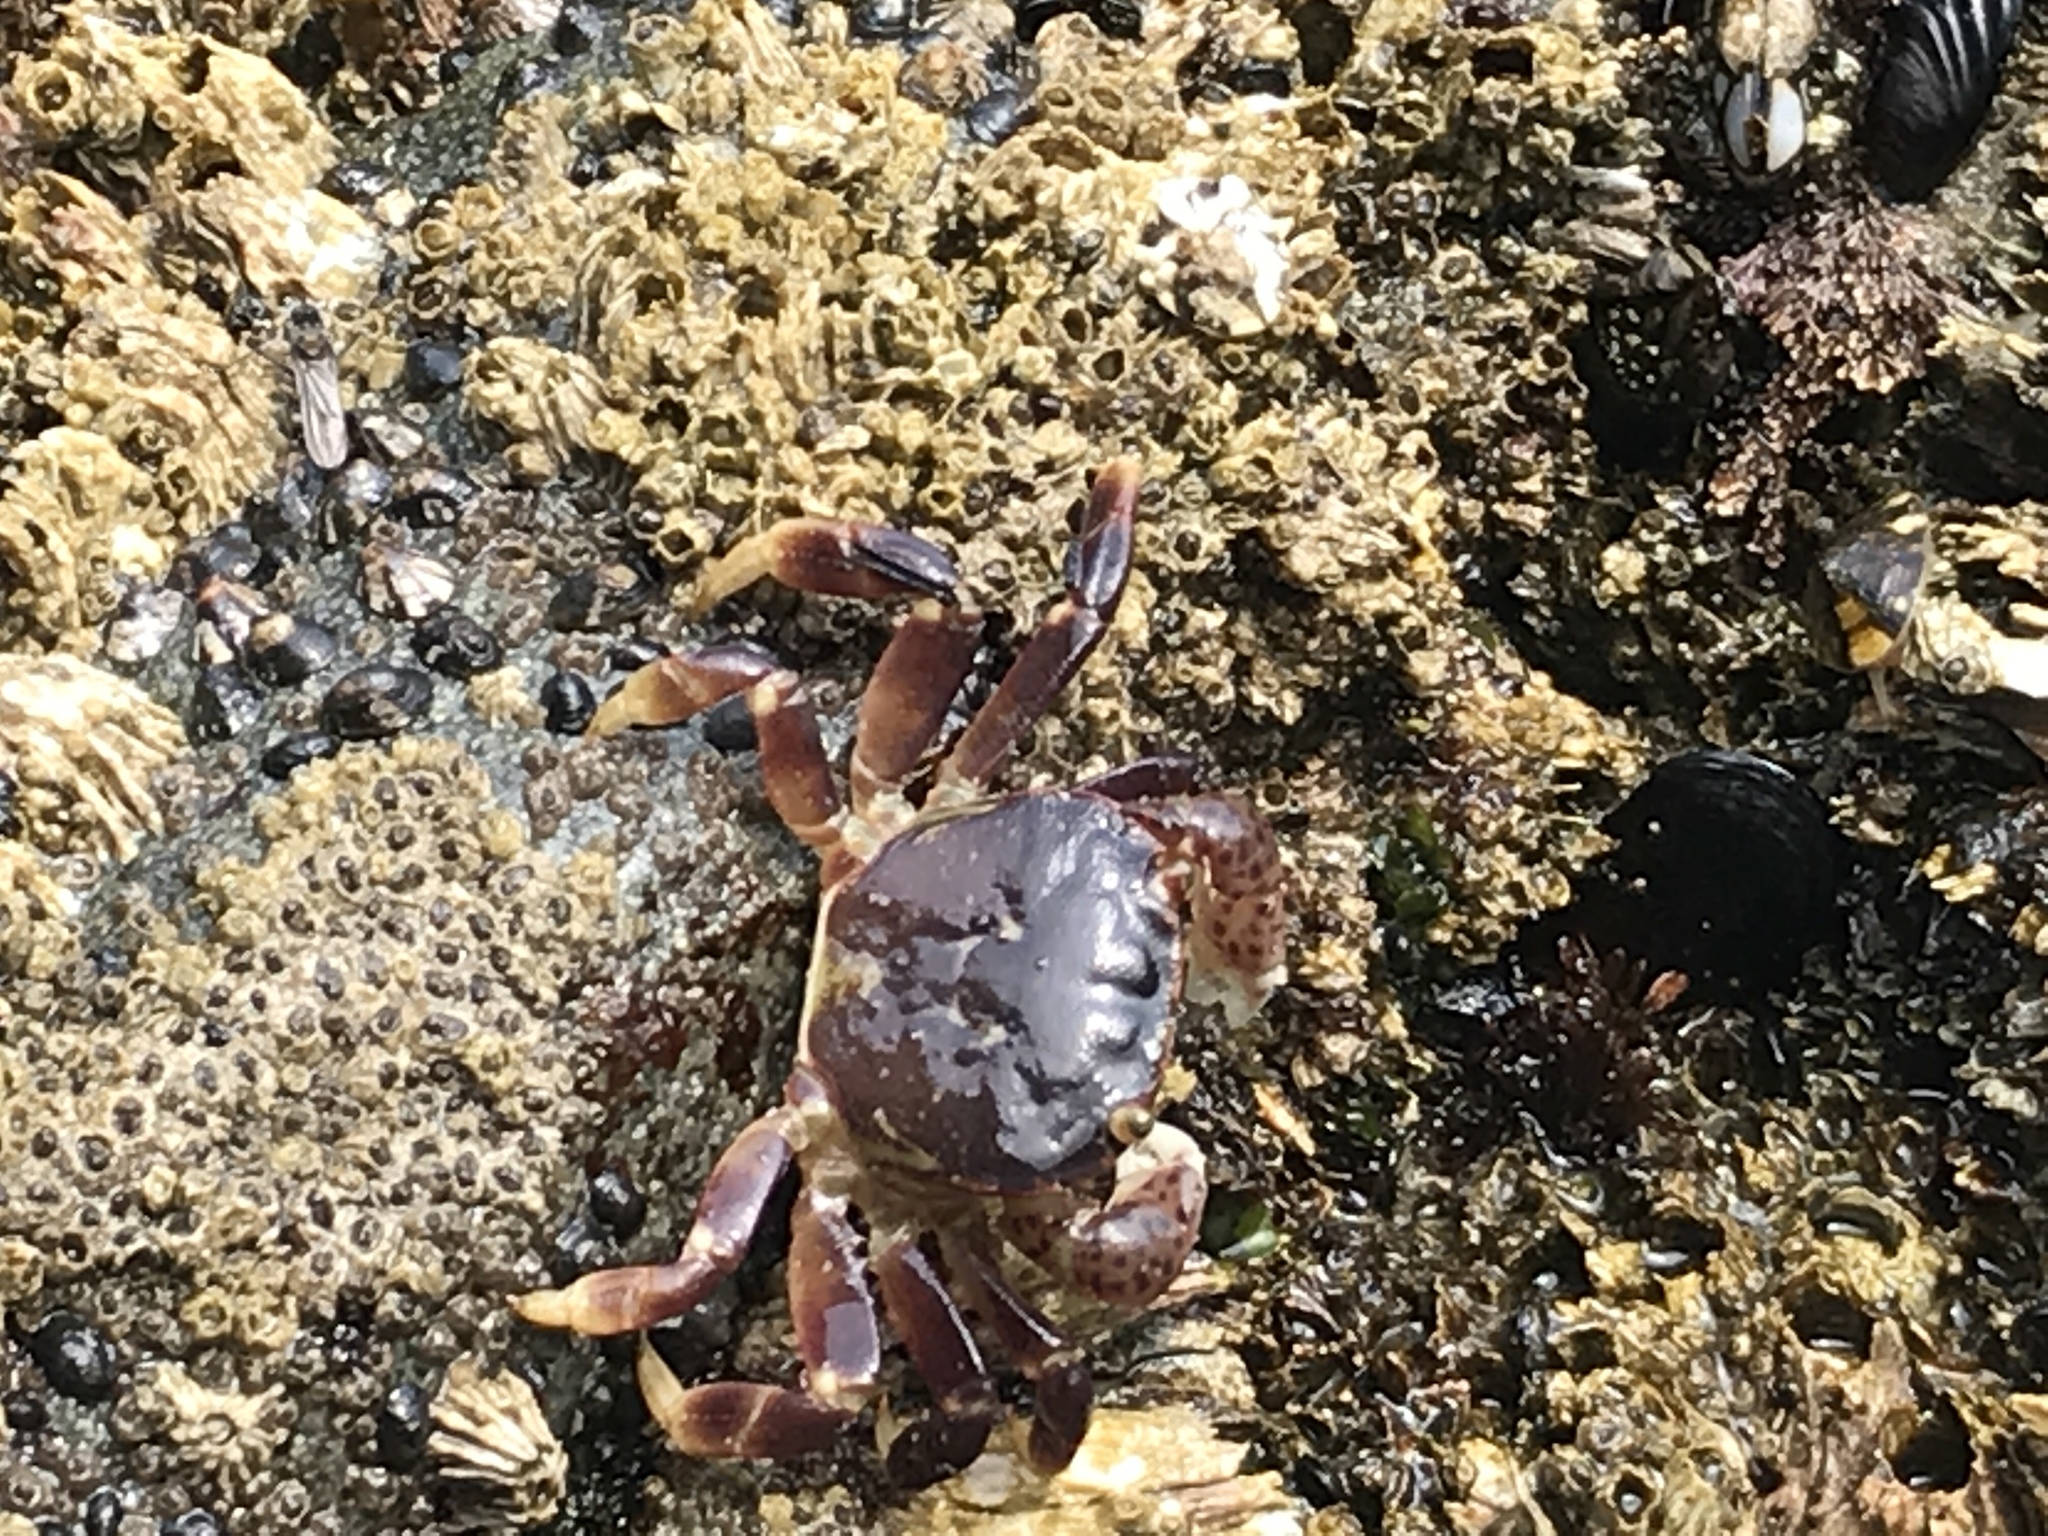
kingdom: Animalia
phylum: Arthropoda
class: Malacostraca
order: Decapoda
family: Varunidae
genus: Hemigrapsus
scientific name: Hemigrapsus nudus
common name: Purple shore crab
